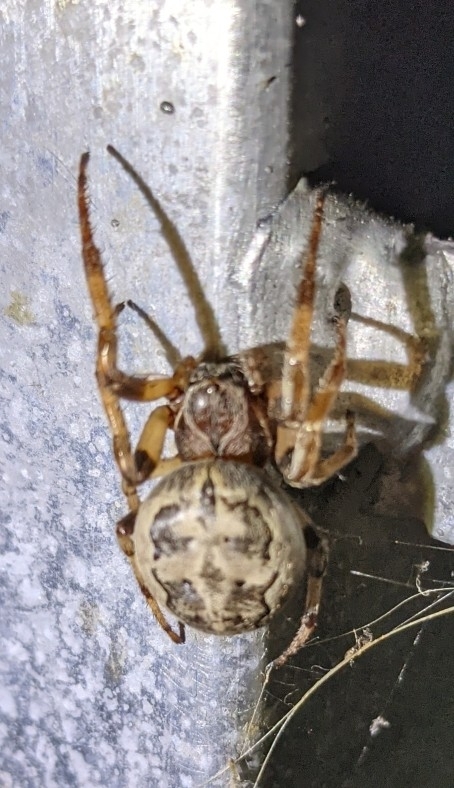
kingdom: Animalia
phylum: Arthropoda
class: Arachnida
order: Araneae
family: Araneidae
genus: Larinioides
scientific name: Larinioides cornutus
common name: Furrow orbweaver
